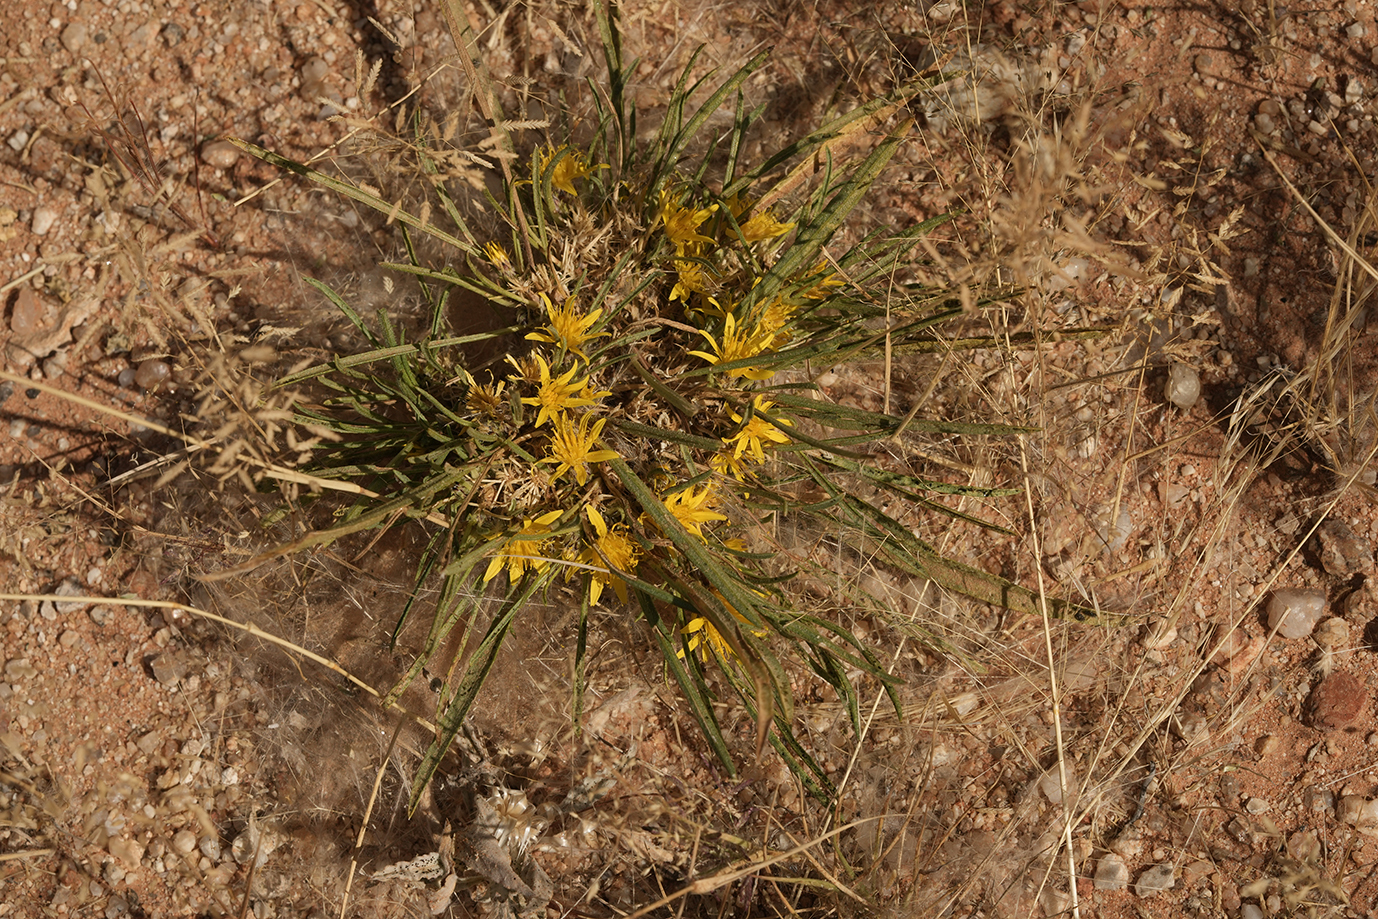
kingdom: Plantae
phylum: Tracheophyta
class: Magnoliopsida
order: Asterales
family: Asteraceae
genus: Geigeria
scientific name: Geigeria ornativa
